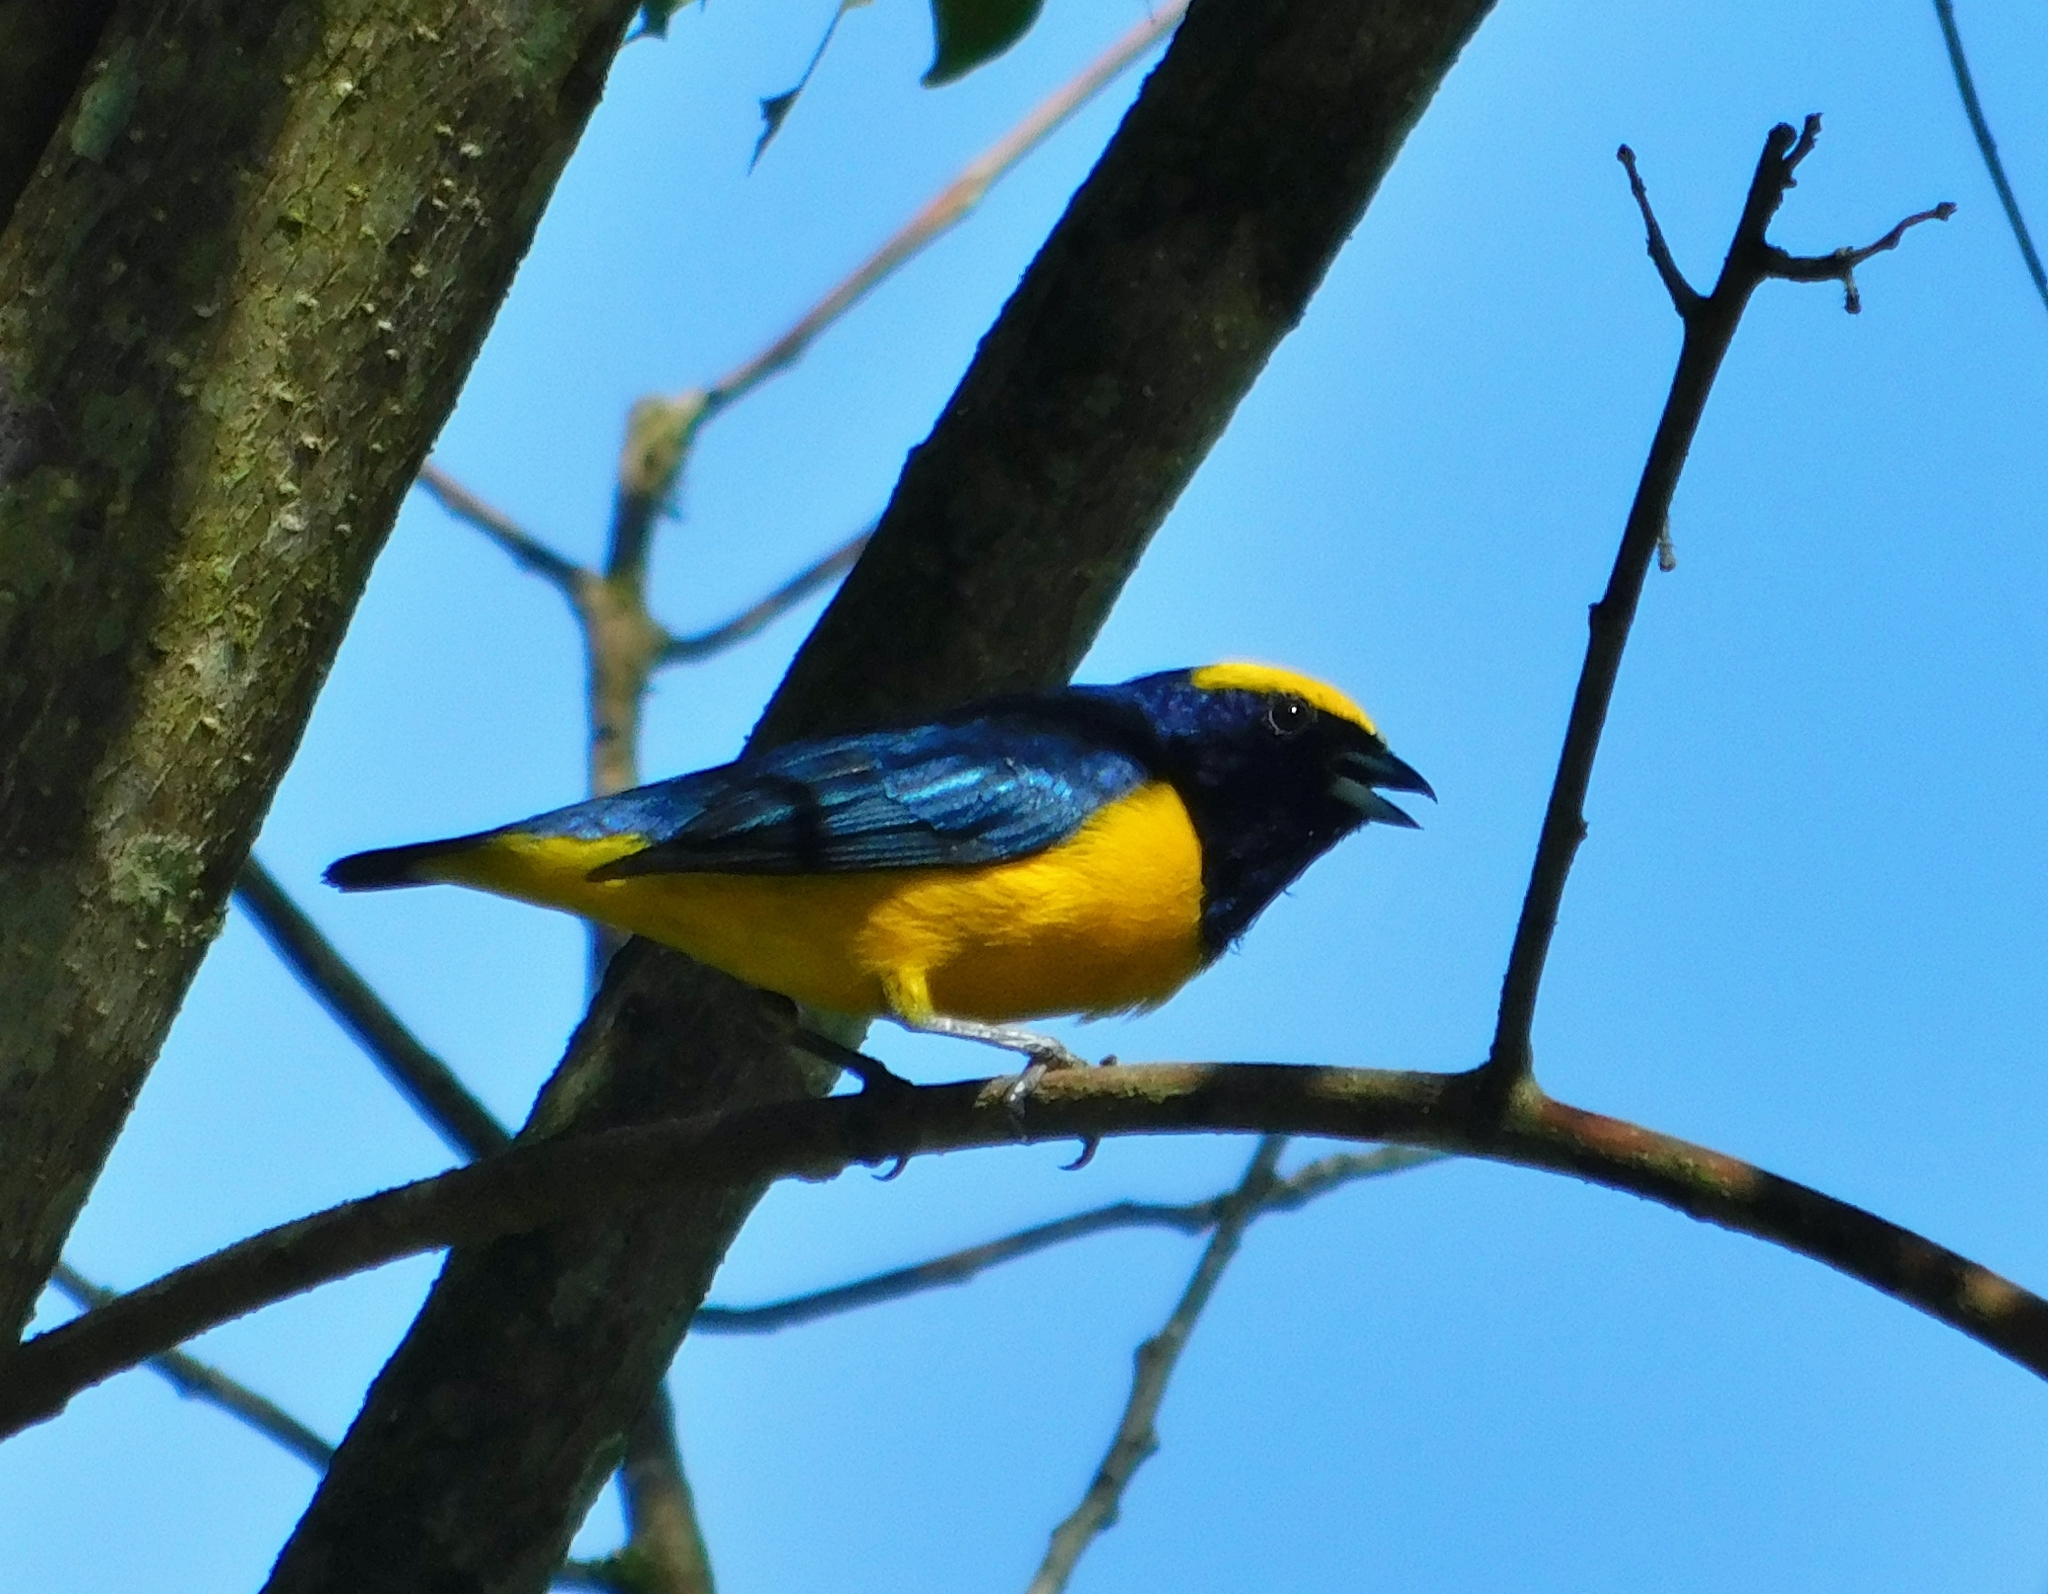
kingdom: Animalia
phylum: Chordata
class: Aves
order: Passeriformes
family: Fringillidae
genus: Euphonia
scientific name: Euphonia luteicapilla
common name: Yellow-crowned euphonia
